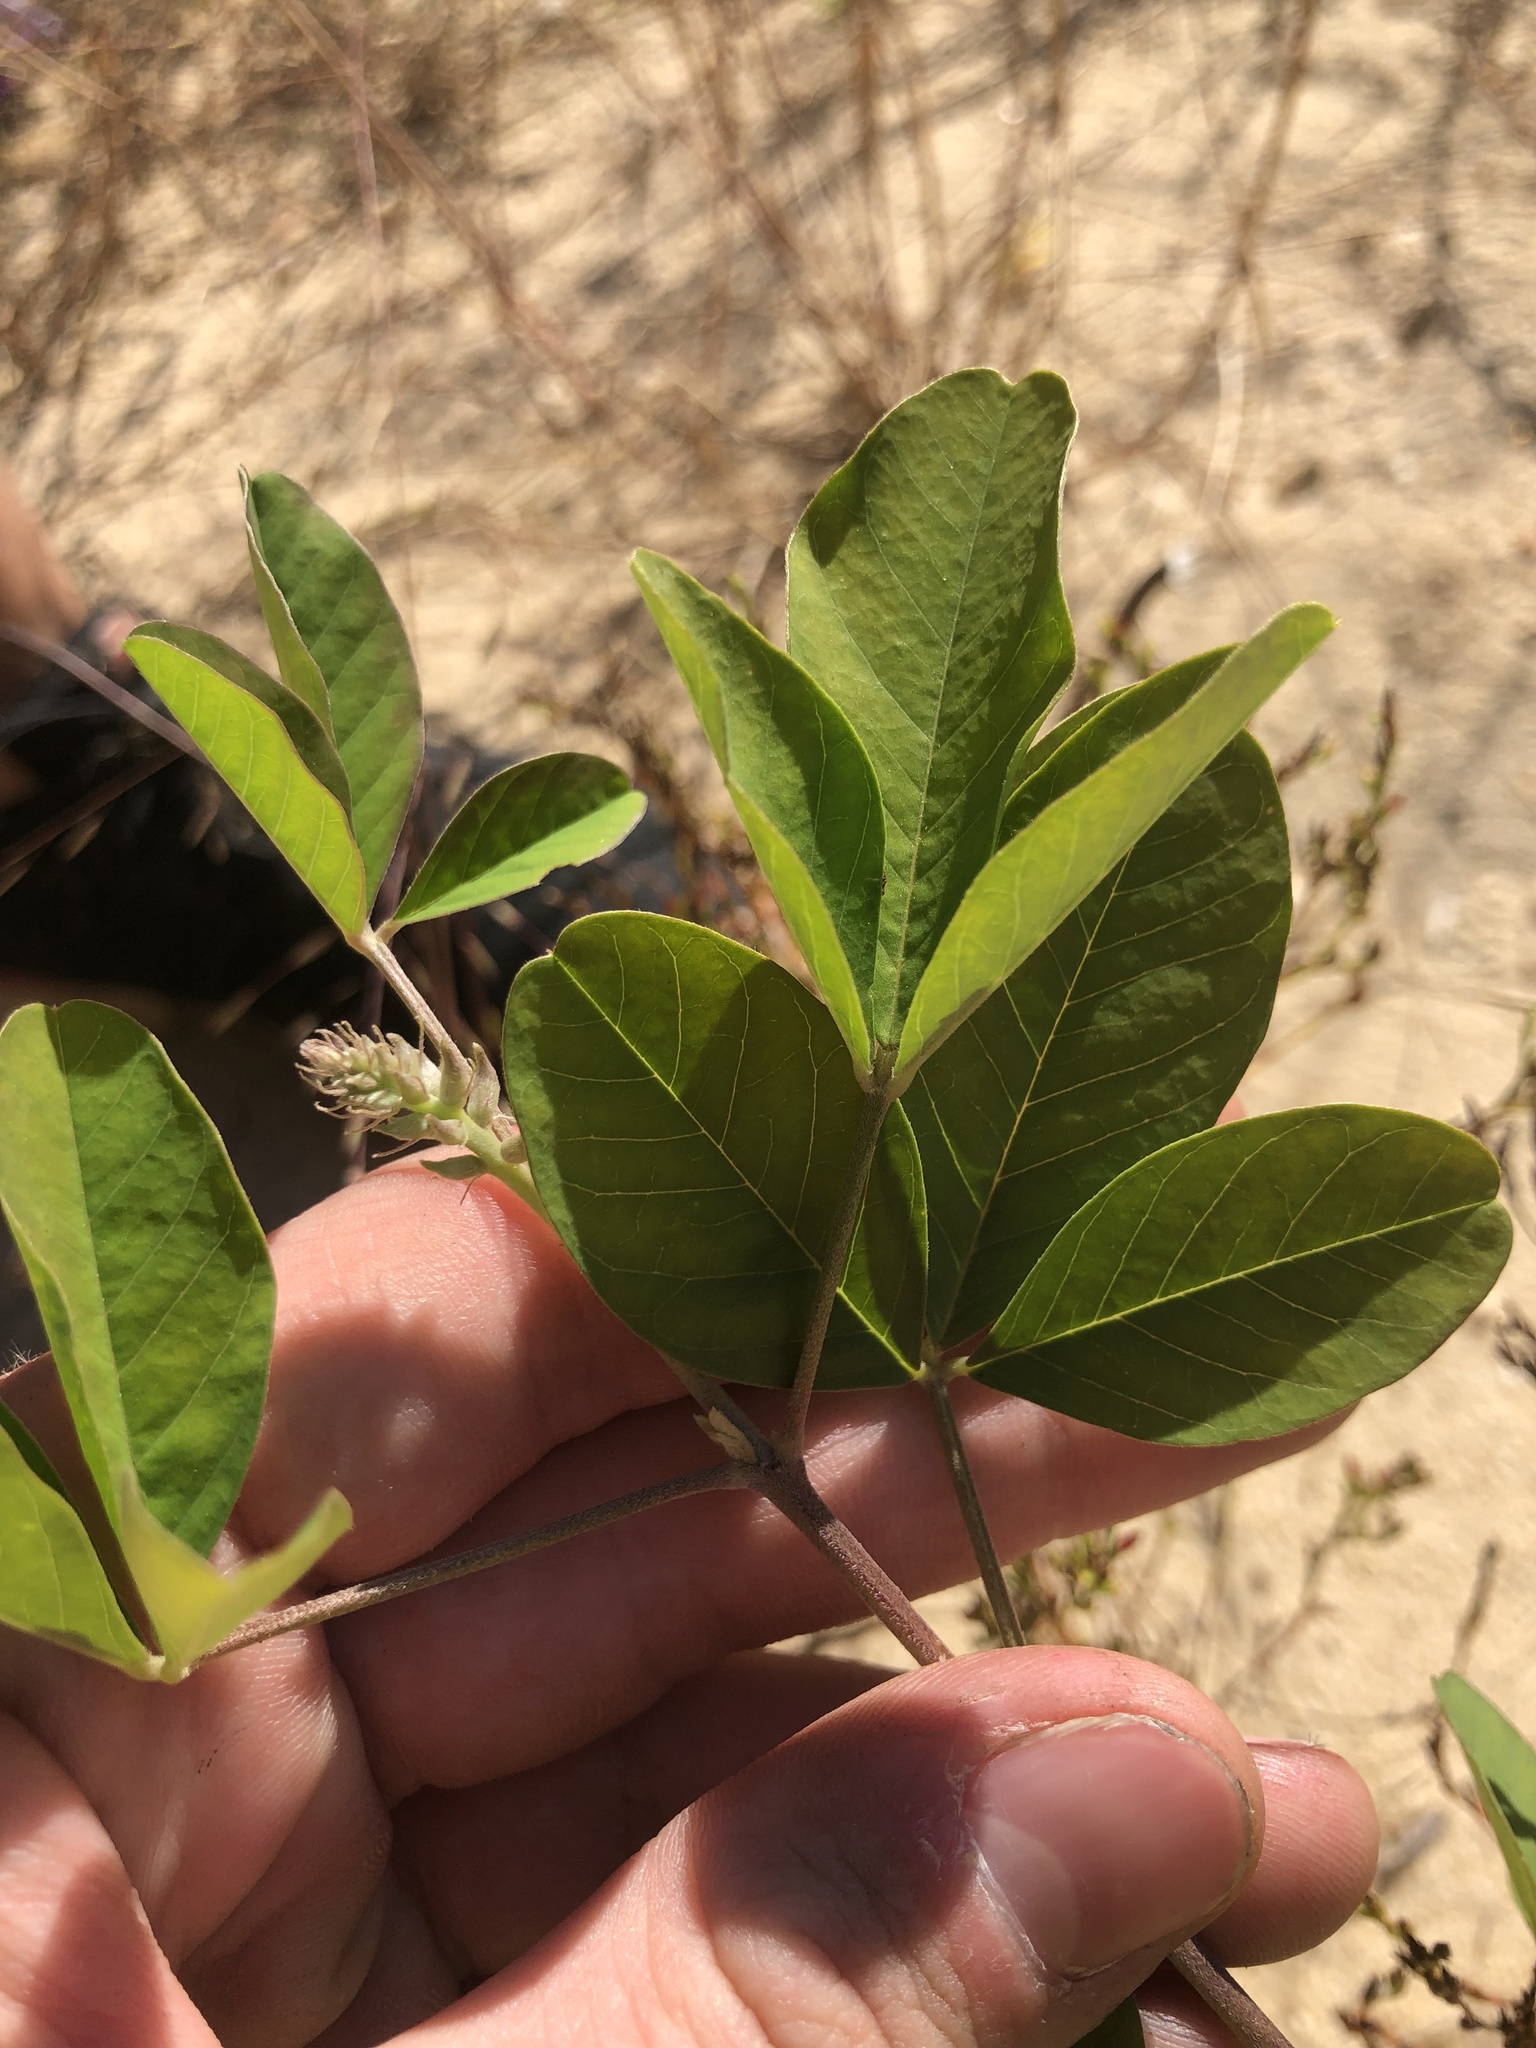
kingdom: Plantae
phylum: Tracheophyta
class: Magnoliopsida
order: Fabales
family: Fabaceae
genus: Crotalaria
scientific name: Crotalaria pallida
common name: Smooth rattlebox
